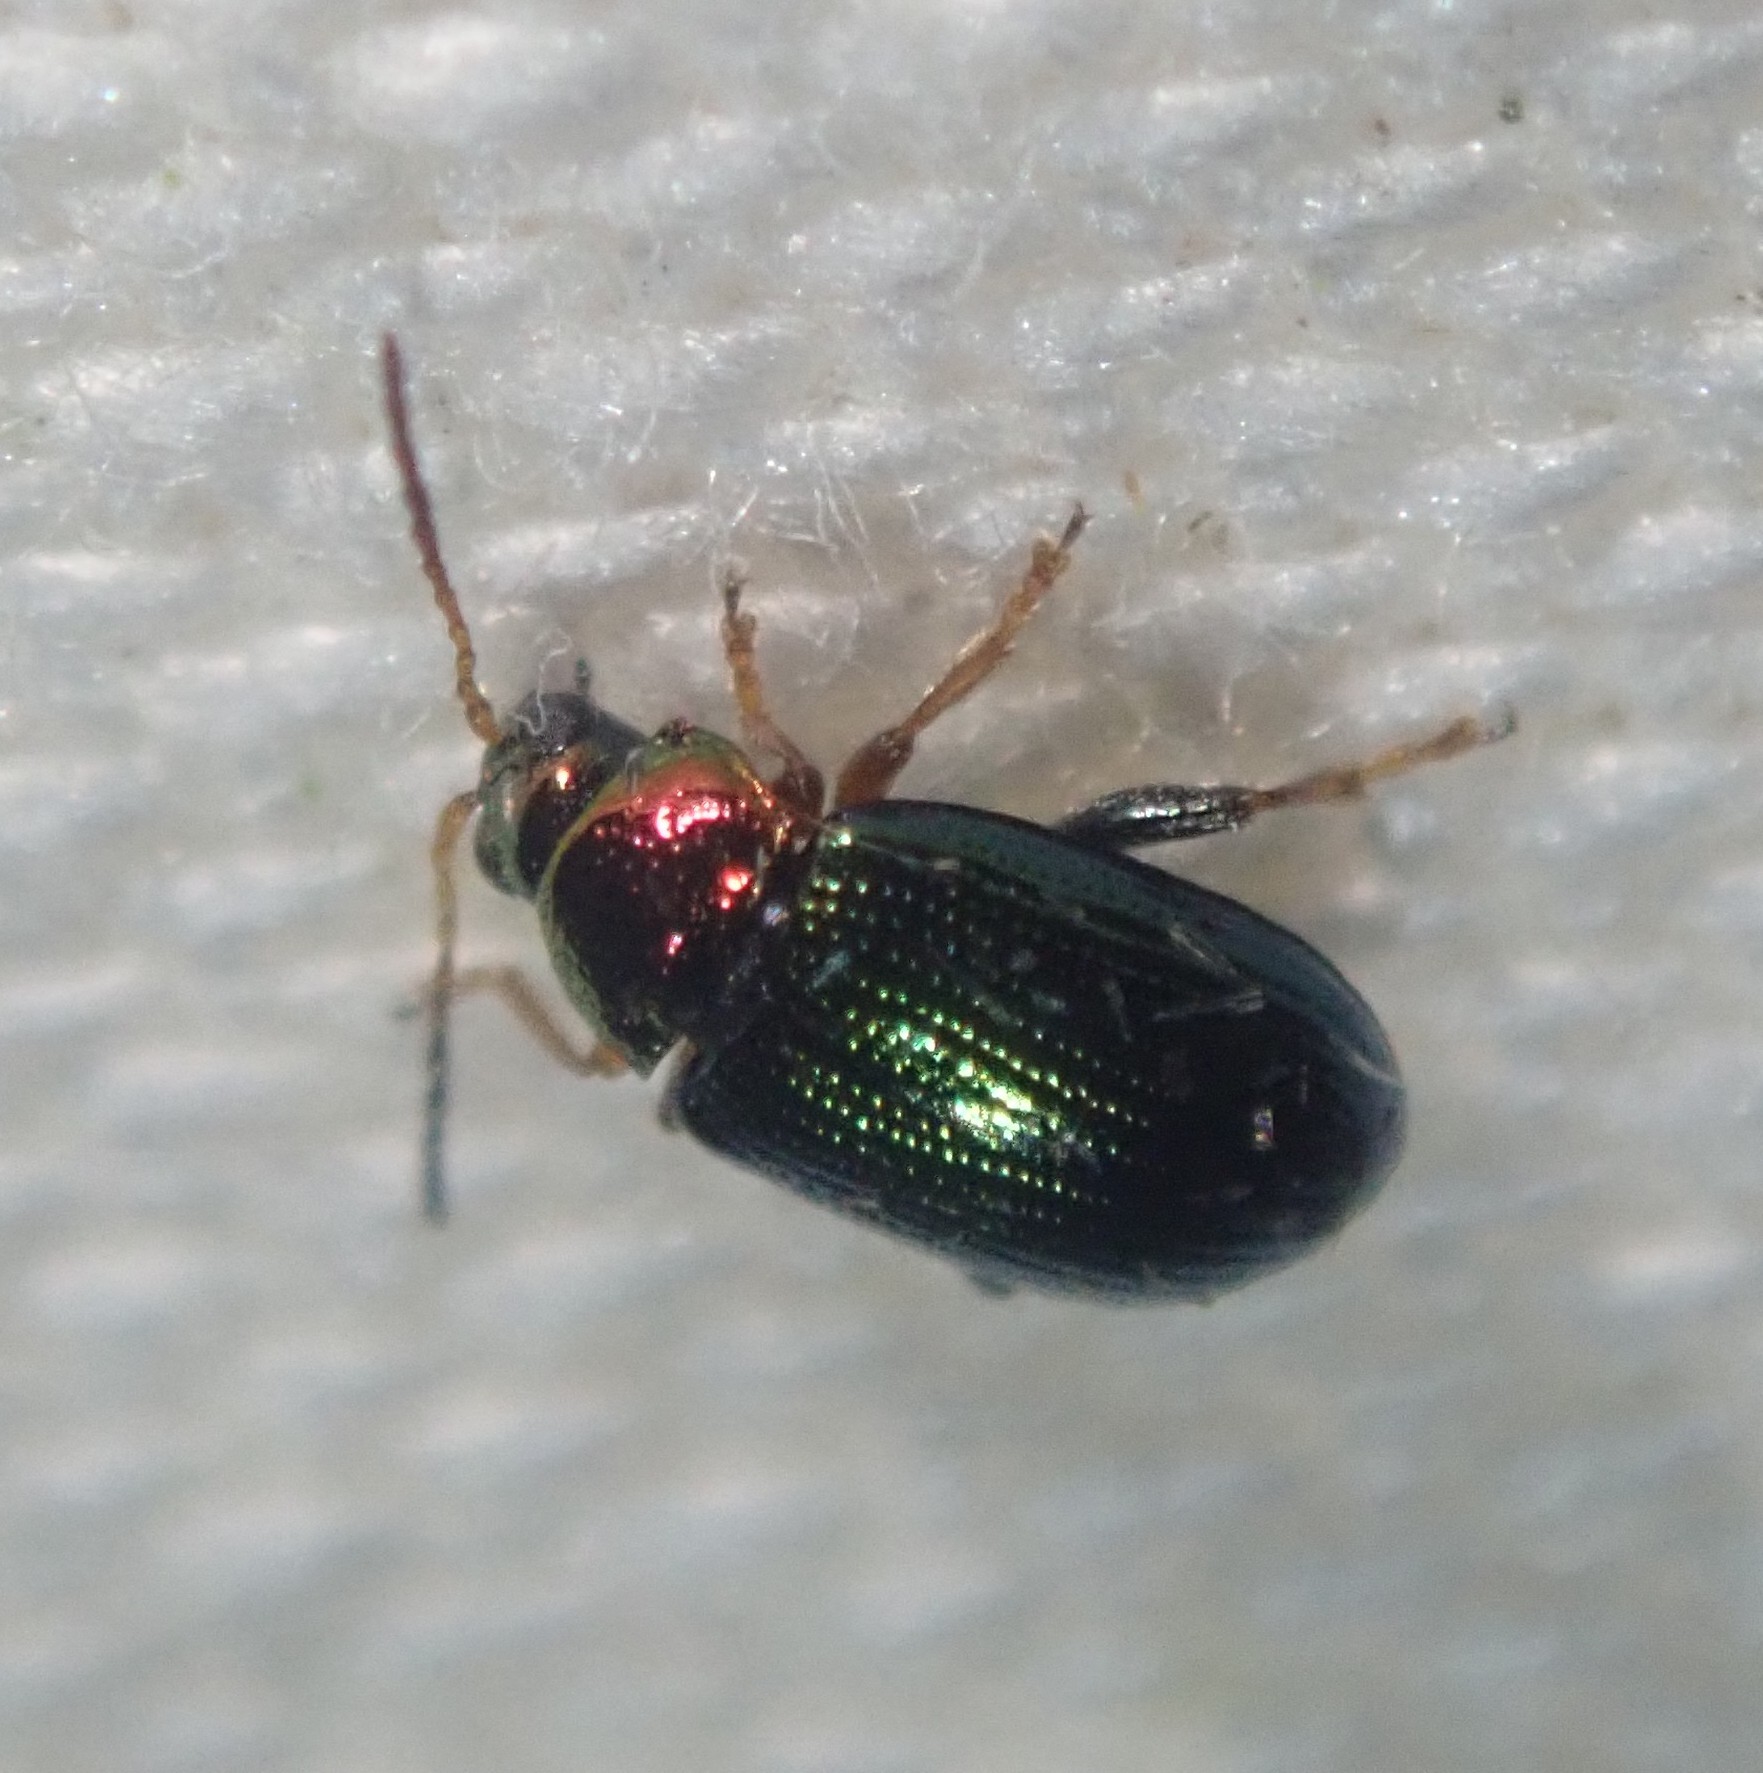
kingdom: Animalia
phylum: Arthropoda
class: Insecta
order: Coleoptera
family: Chrysomelidae
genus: Crepidodera
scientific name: Crepidodera aurata
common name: Willow flea beetle
